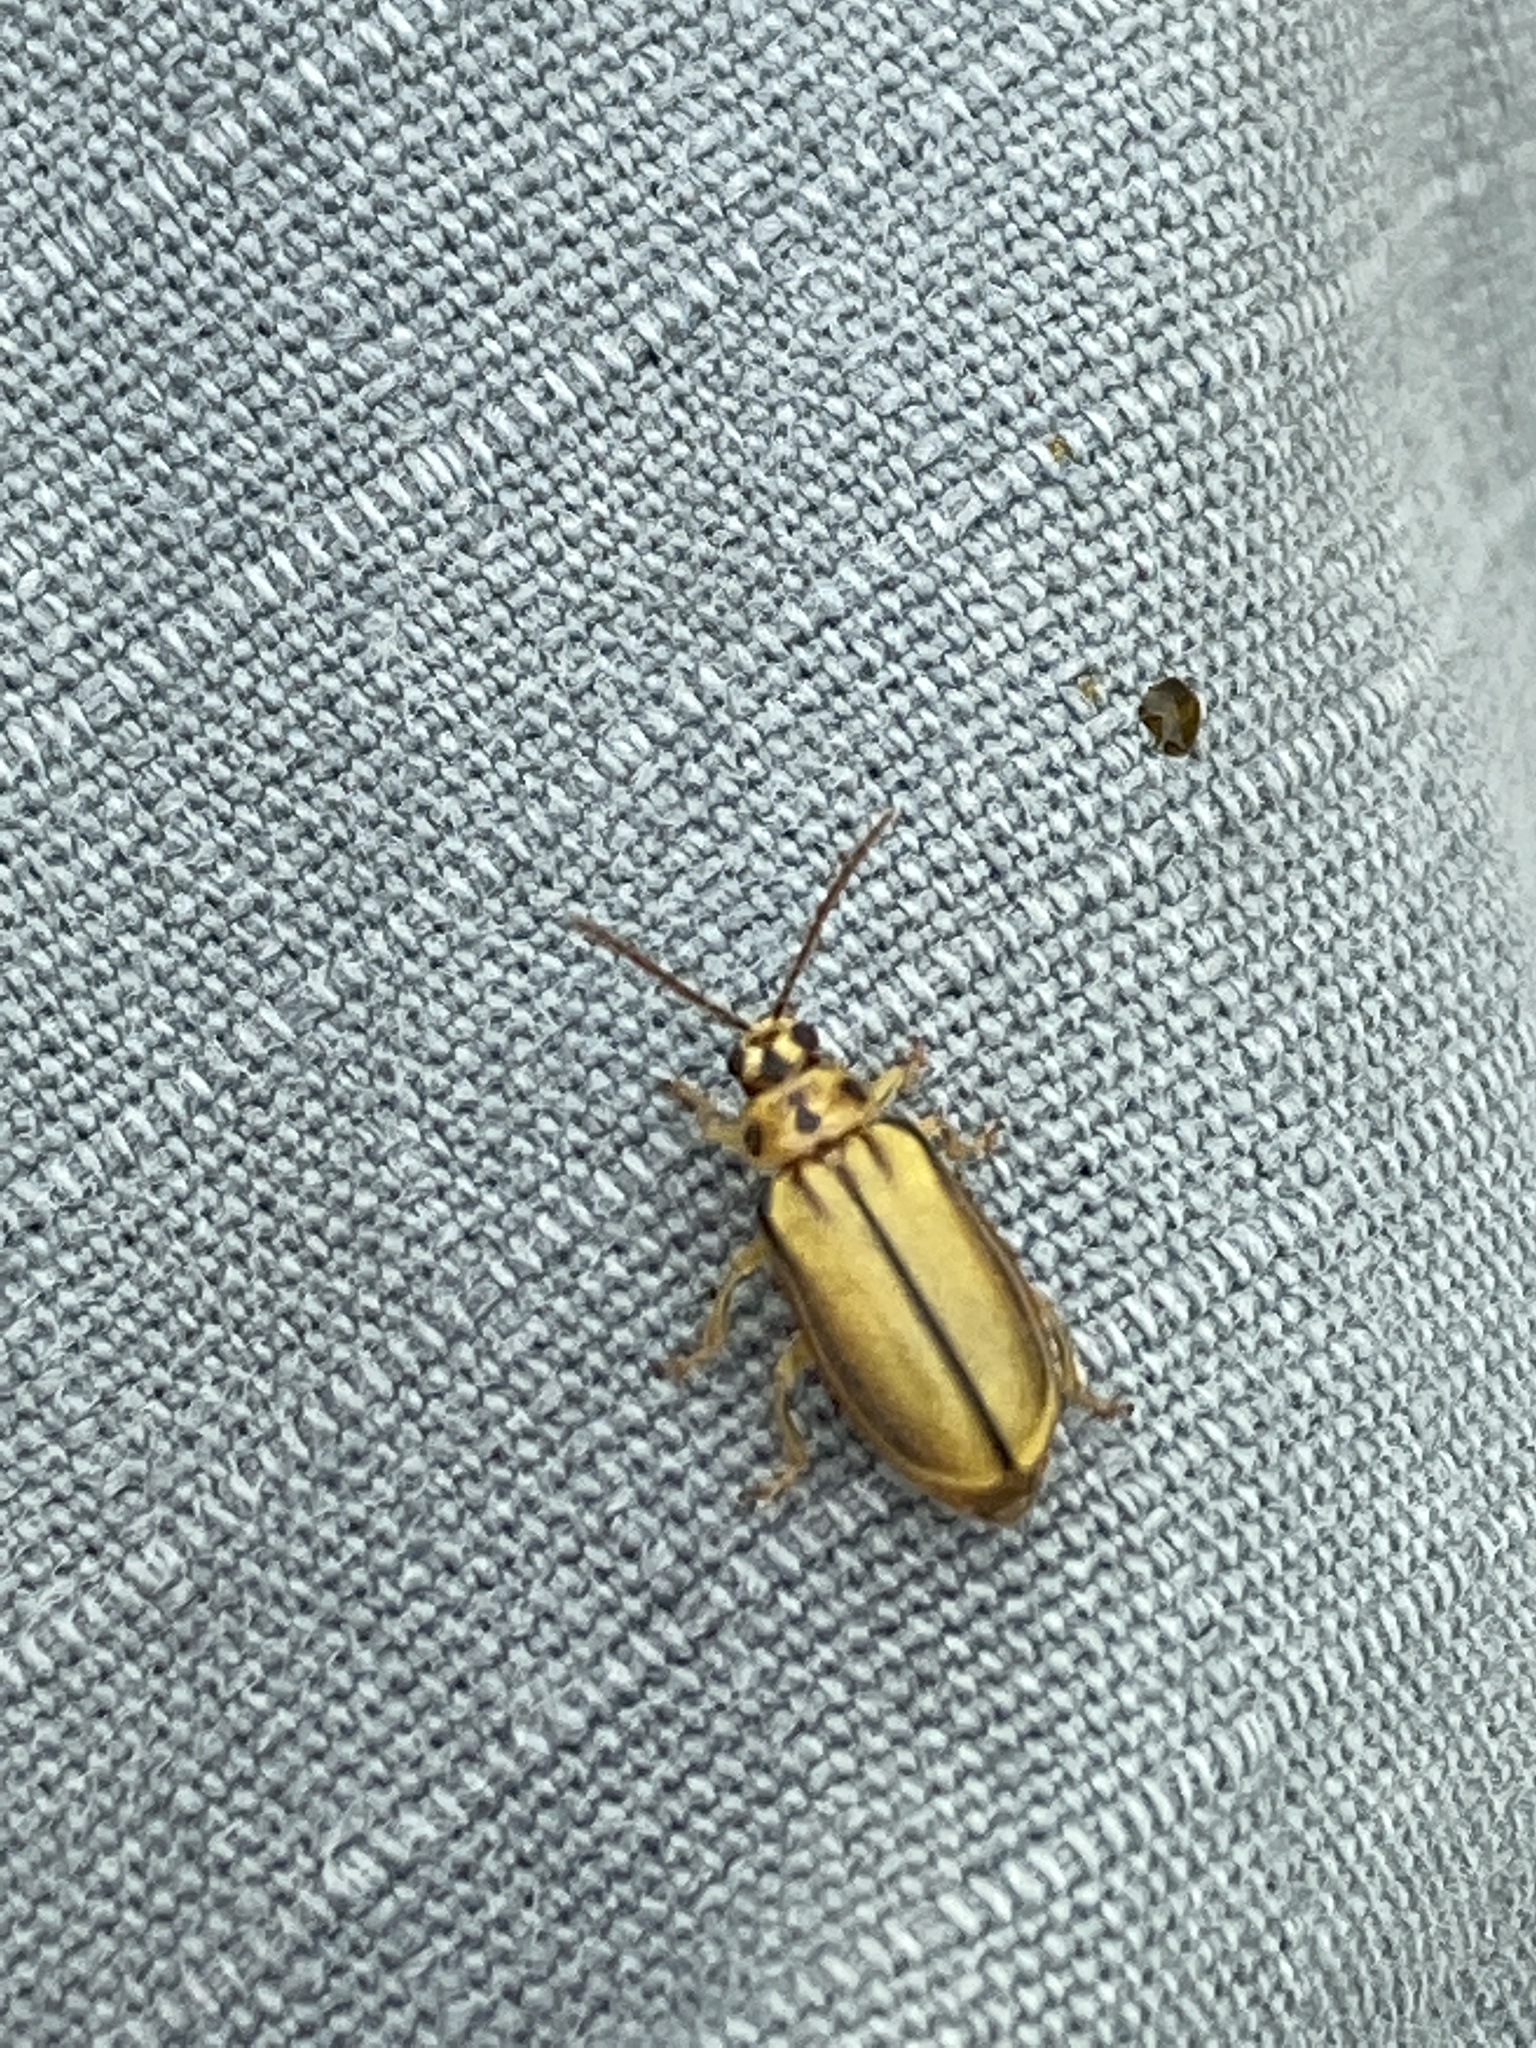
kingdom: Animalia
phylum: Arthropoda
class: Insecta
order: Coleoptera
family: Chrysomelidae
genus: Xanthogaleruca
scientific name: Xanthogaleruca luteola
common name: Elm leaf beetle
